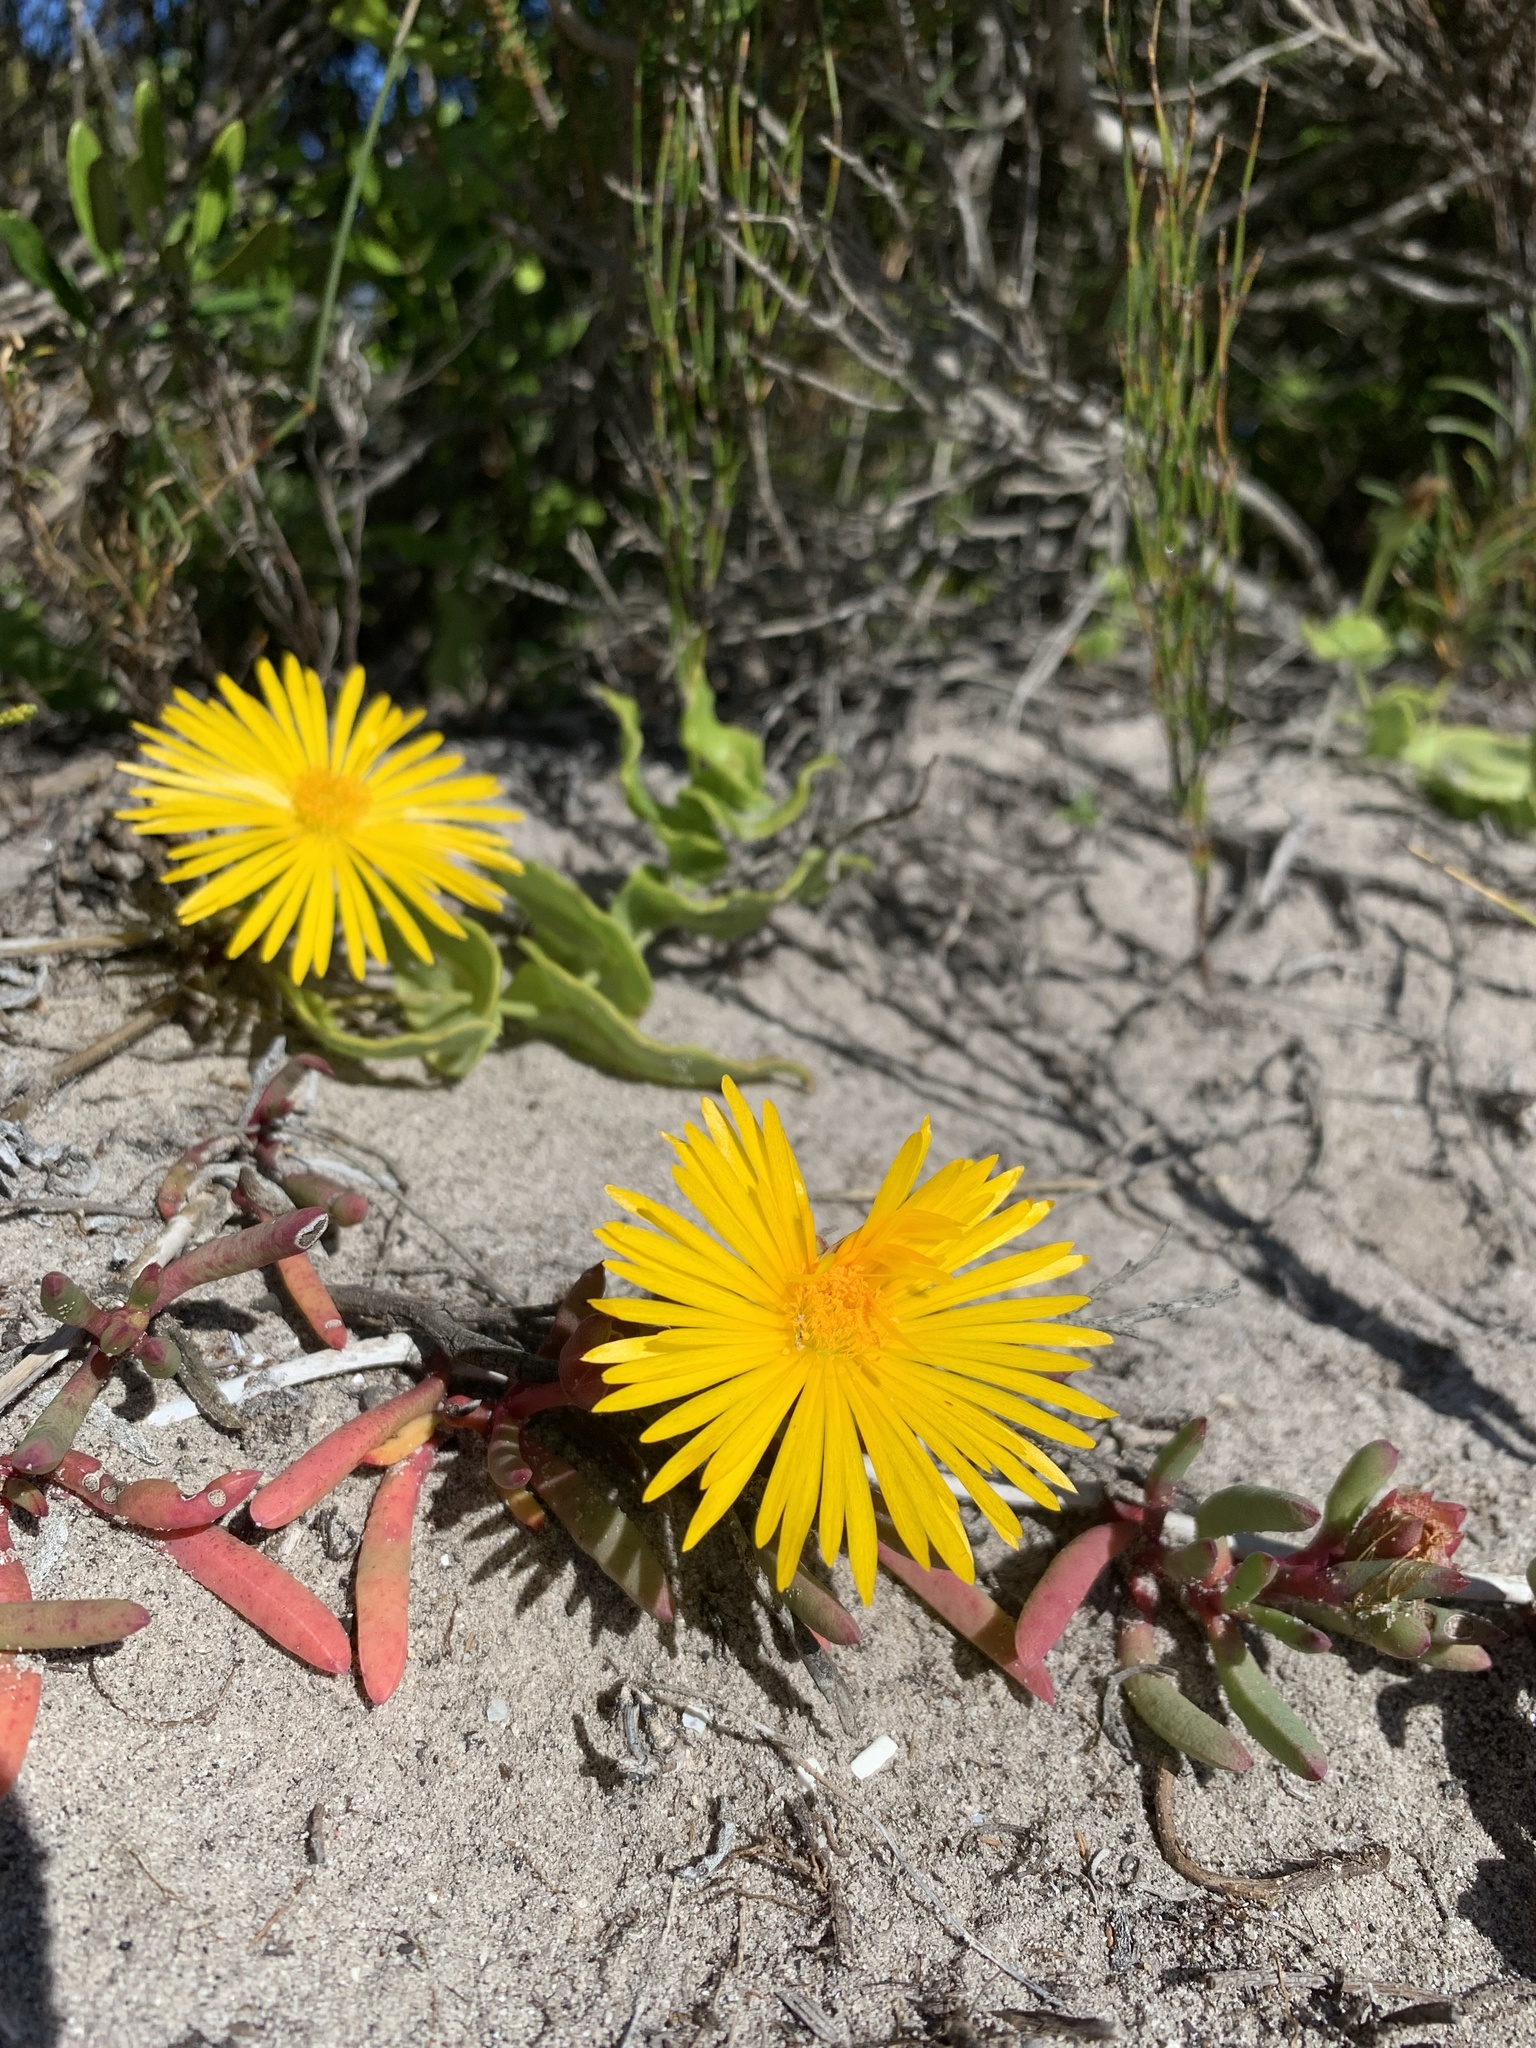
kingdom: Plantae
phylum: Tracheophyta
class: Magnoliopsida
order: Caryophyllales
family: Aizoaceae
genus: Jordaaniella
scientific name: Jordaaniella dubia
